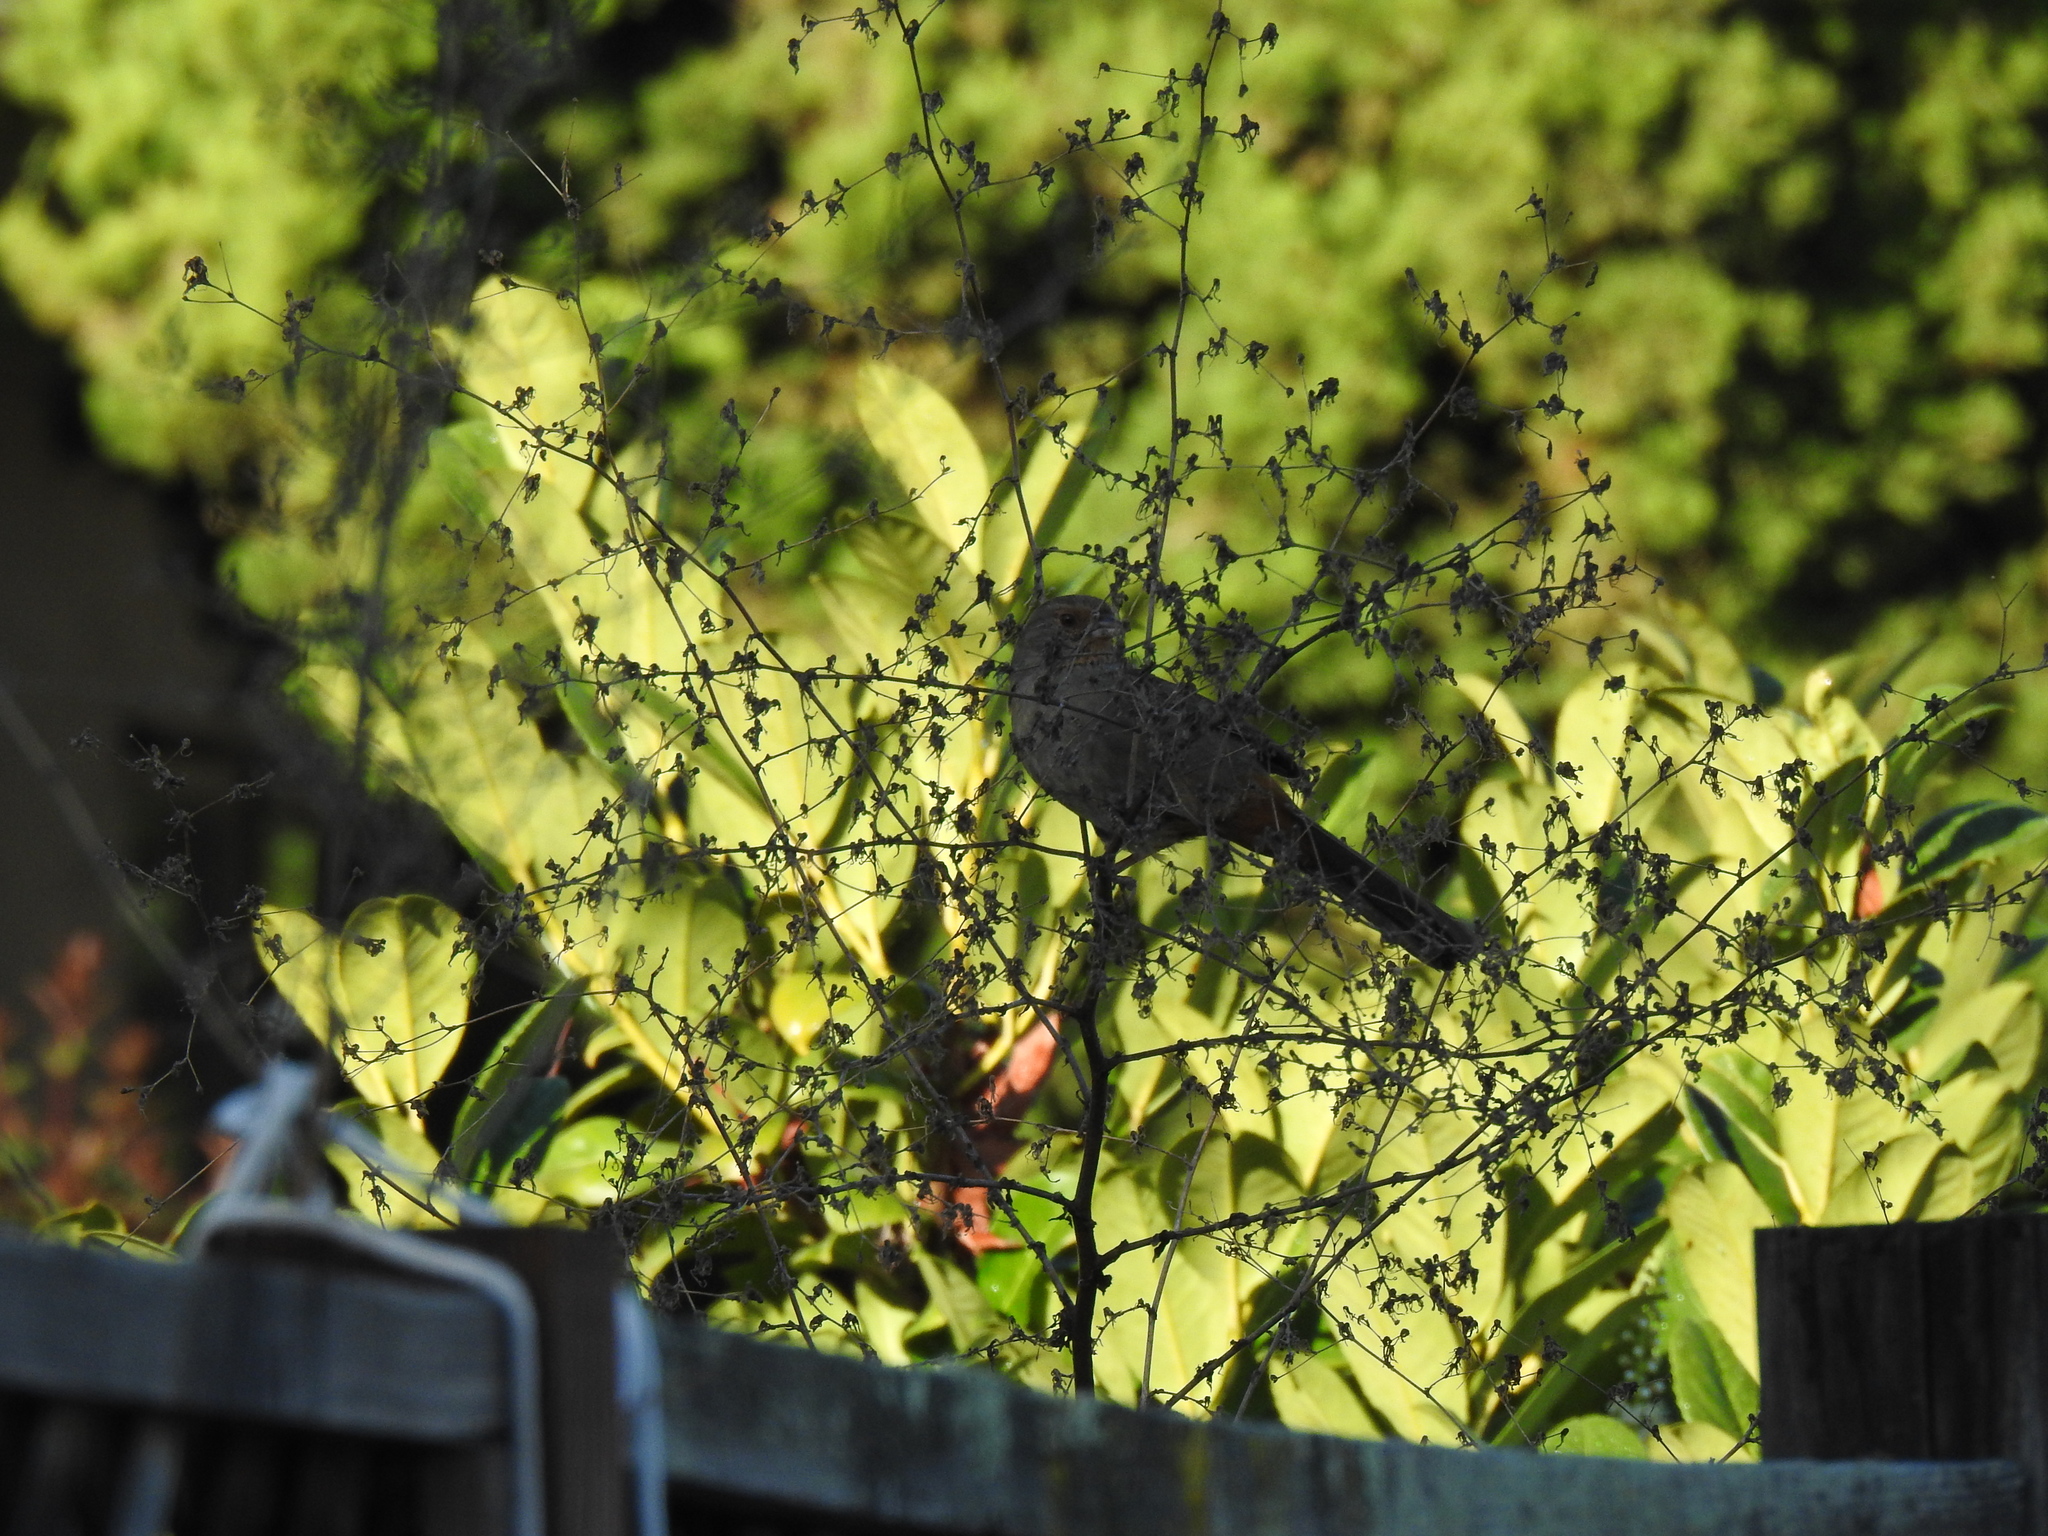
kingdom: Animalia
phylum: Chordata
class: Aves
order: Passeriformes
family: Passerellidae
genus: Melozone
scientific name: Melozone crissalis
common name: California towhee
